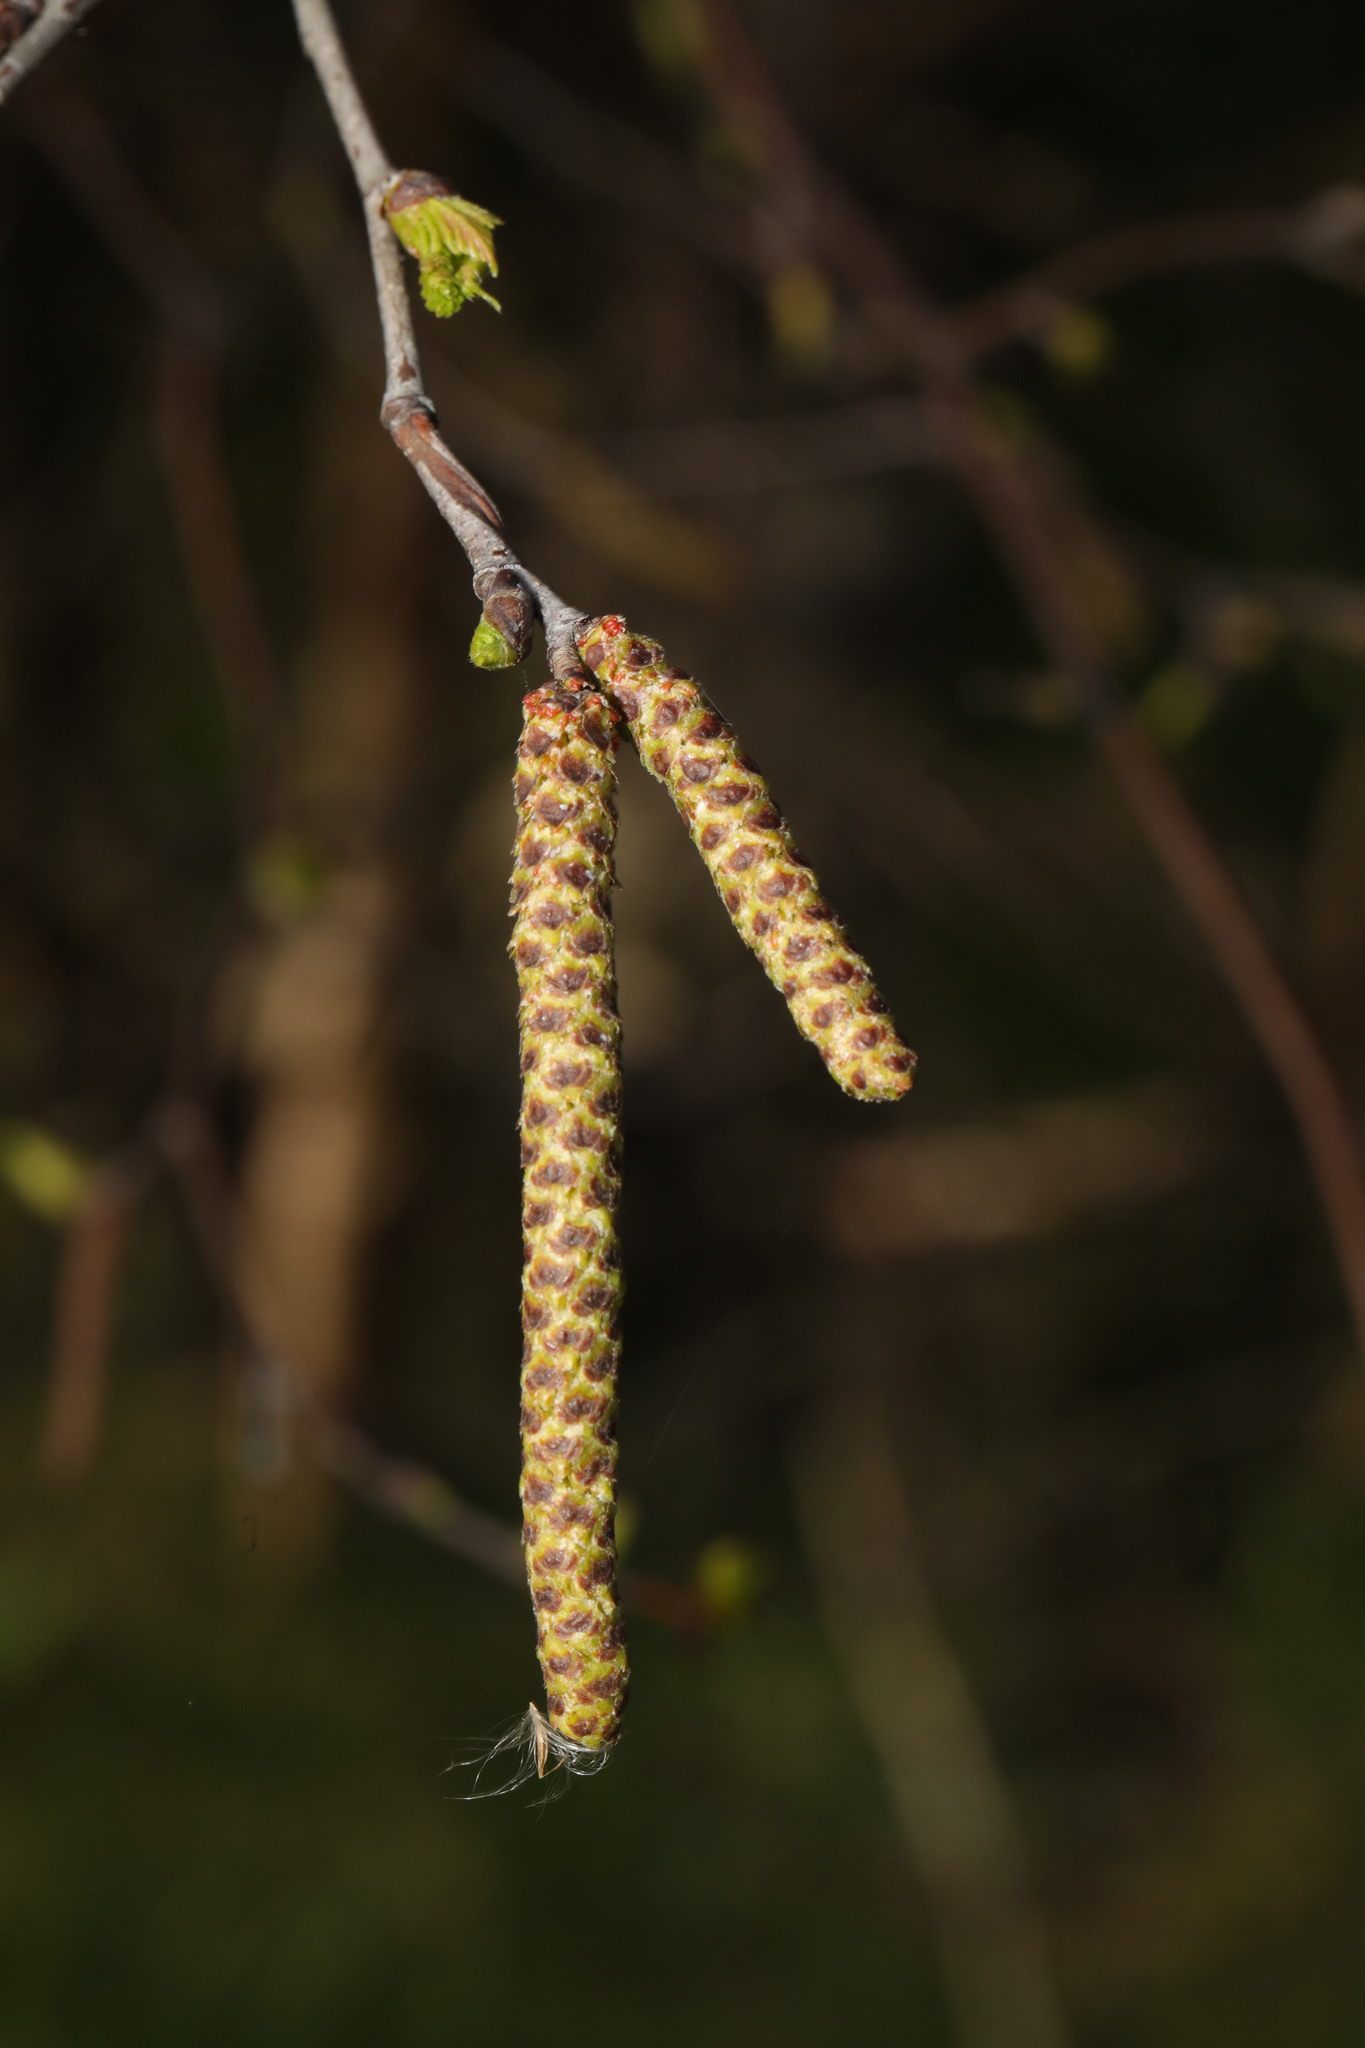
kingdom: Plantae
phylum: Tracheophyta
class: Magnoliopsida
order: Fagales
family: Betulaceae
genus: Betula
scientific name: Betula pendula
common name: Silver birch
